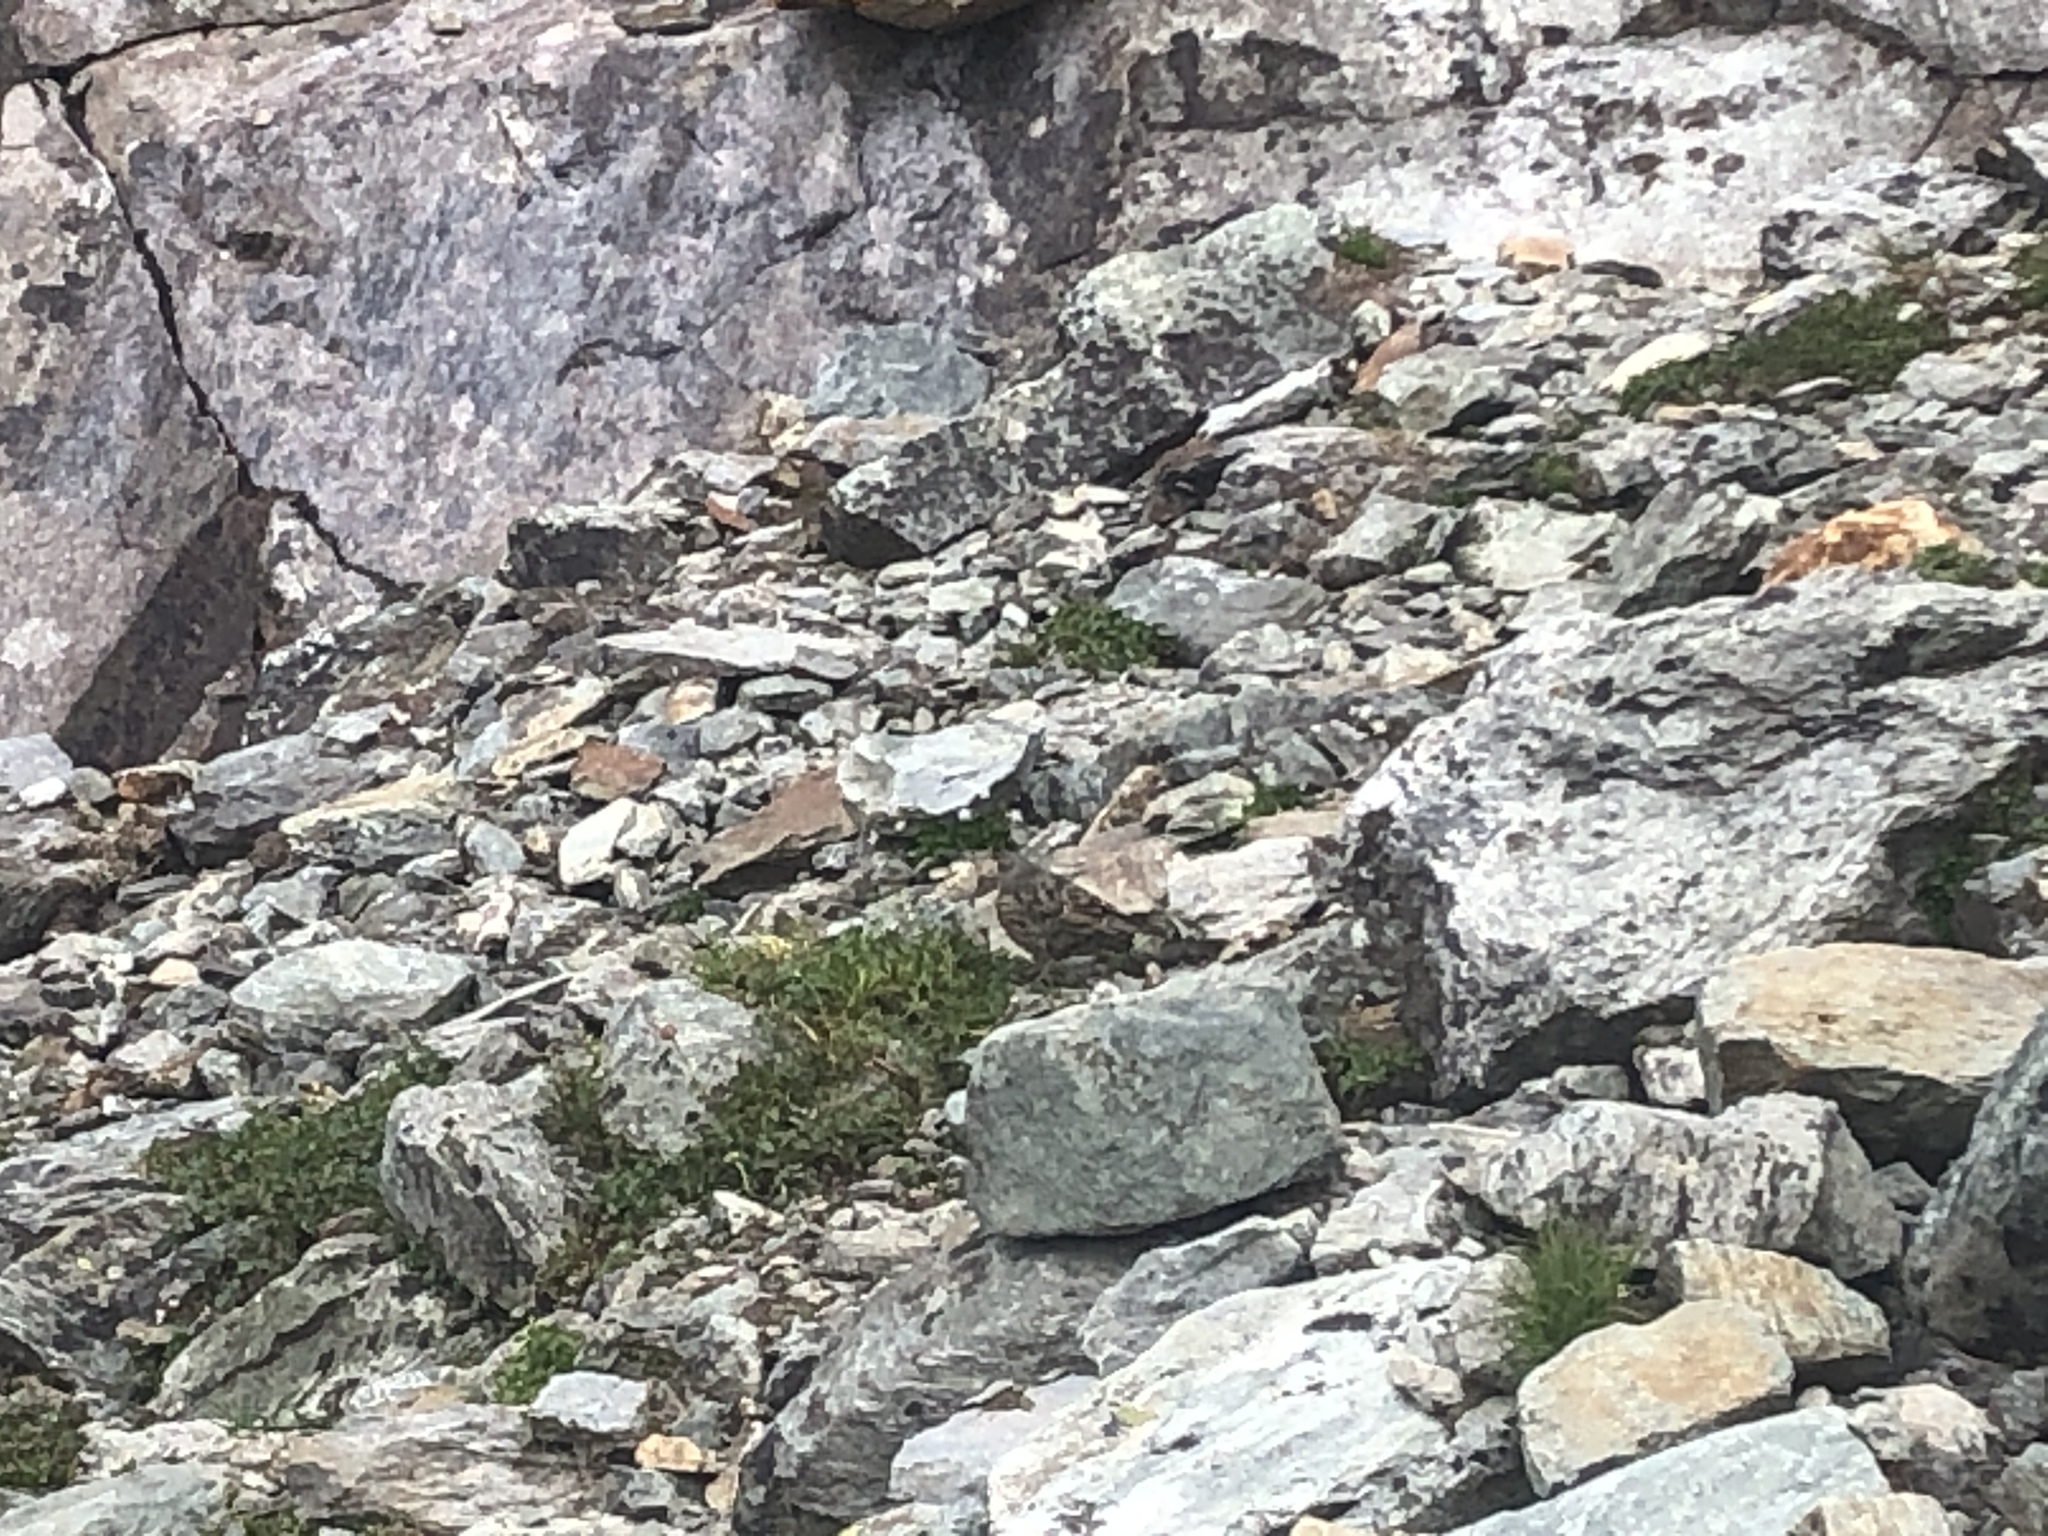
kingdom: Animalia
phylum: Chordata
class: Aves
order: Passeriformes
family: Prunellidae
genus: Prunella
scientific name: Prunella collaris
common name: Alpine accentor
